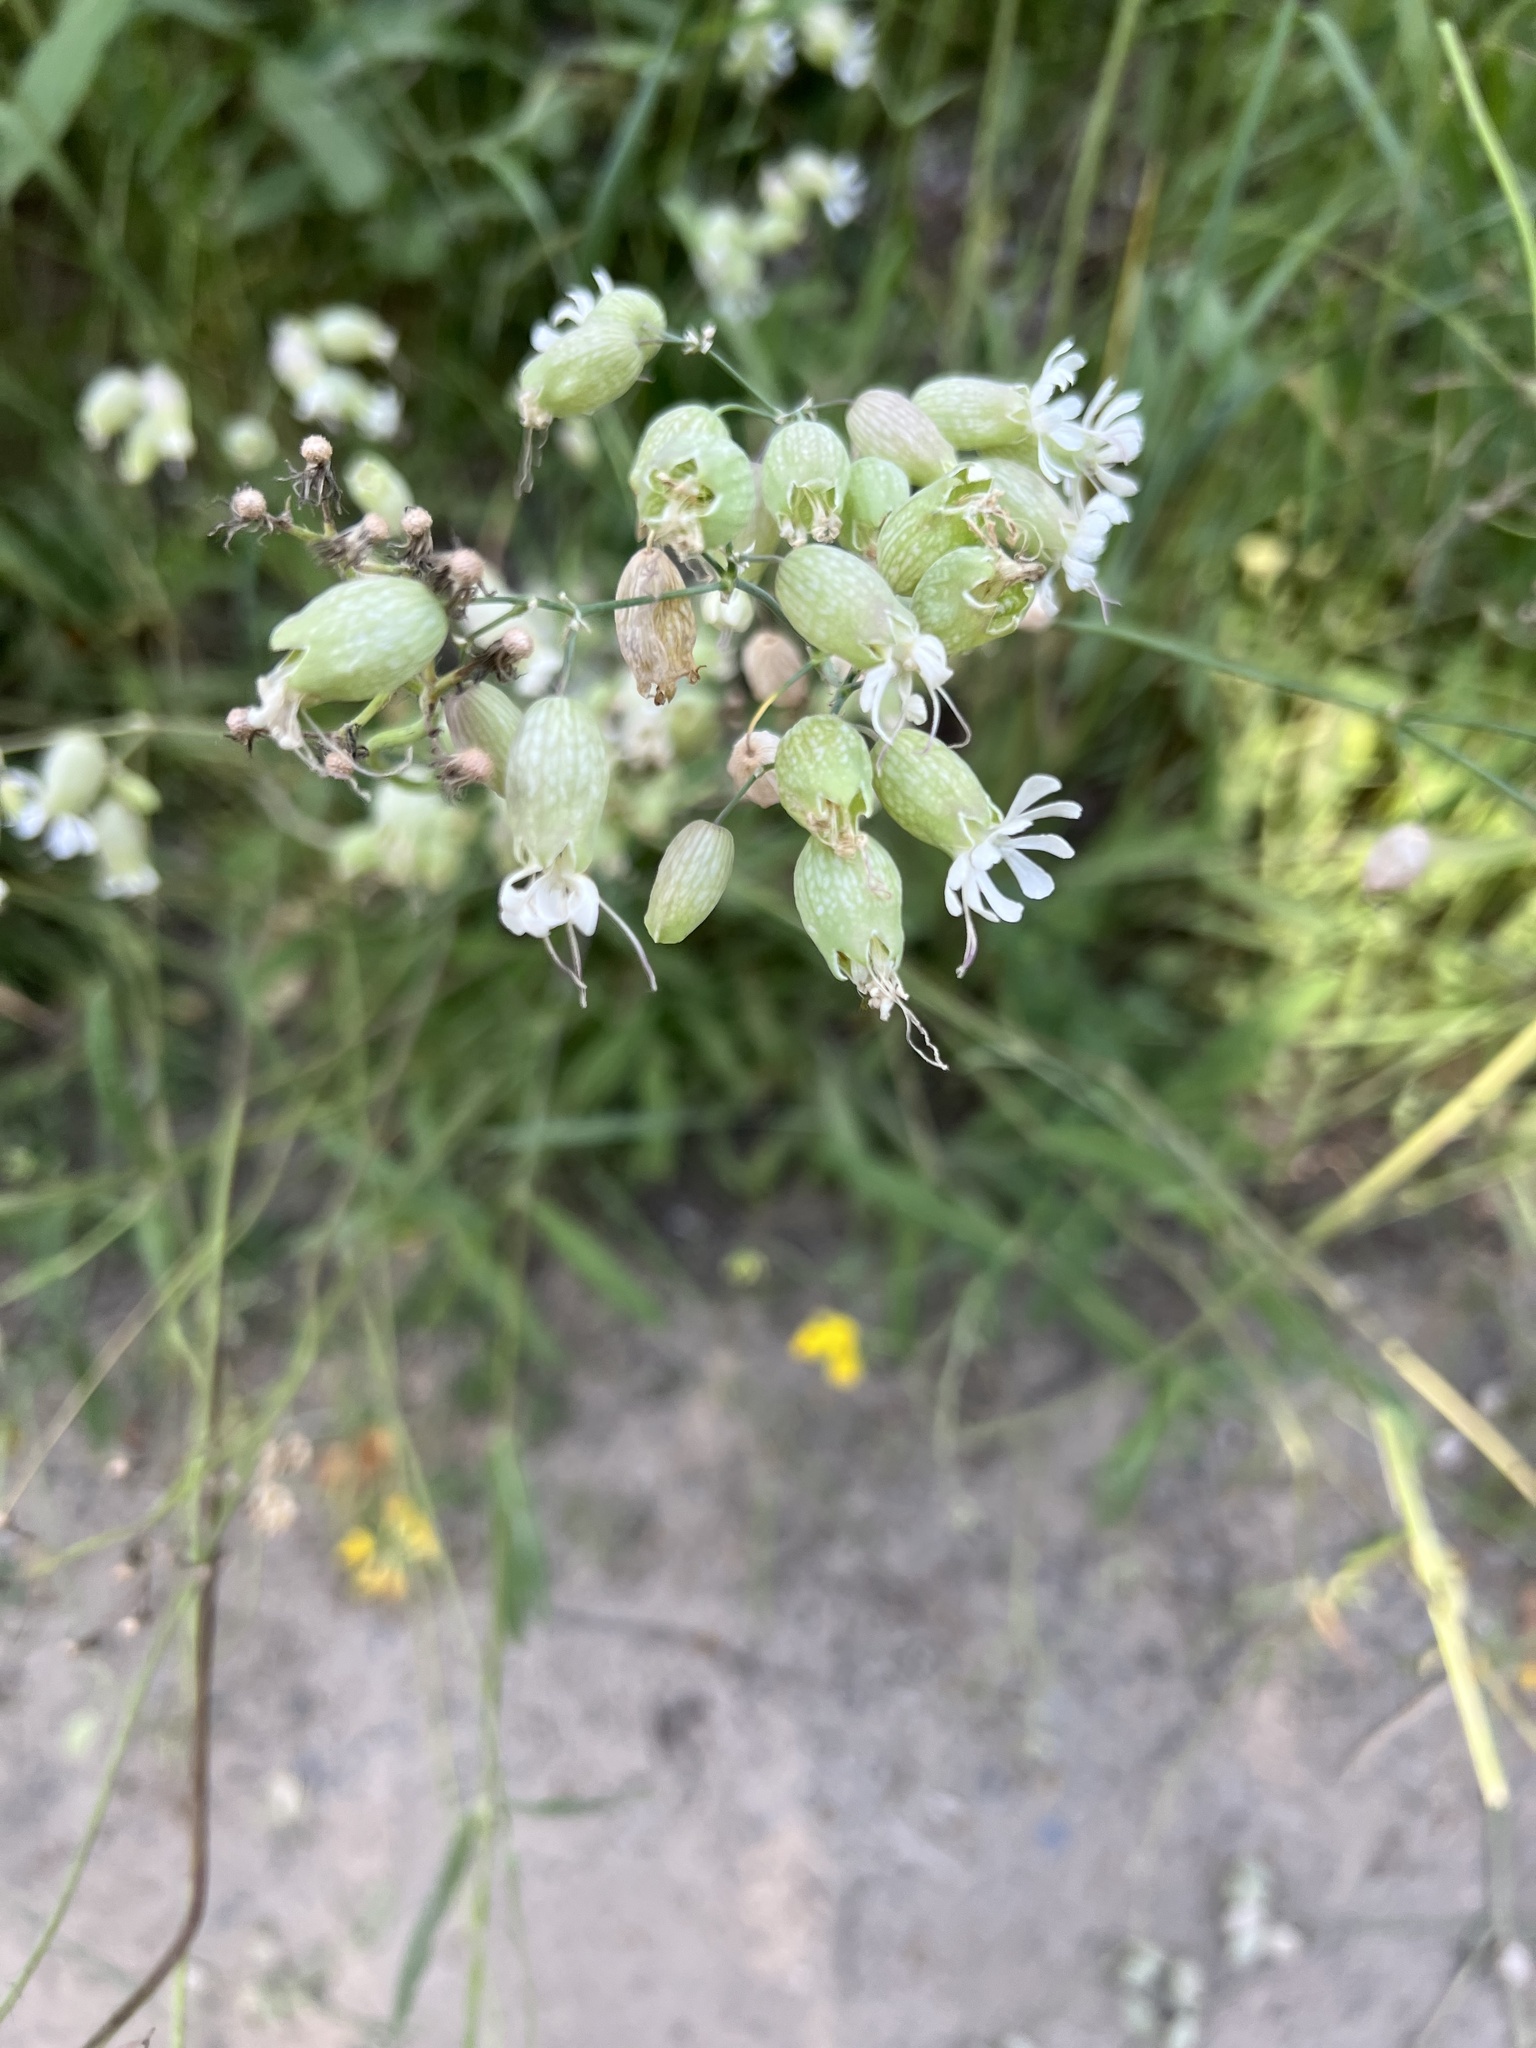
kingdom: Plantae
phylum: Tracheophyta
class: Magnoliopsida
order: Caryophyllales
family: Caryophyllaceae
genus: Silene
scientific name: Silene vulgaris
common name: Bladder campion
